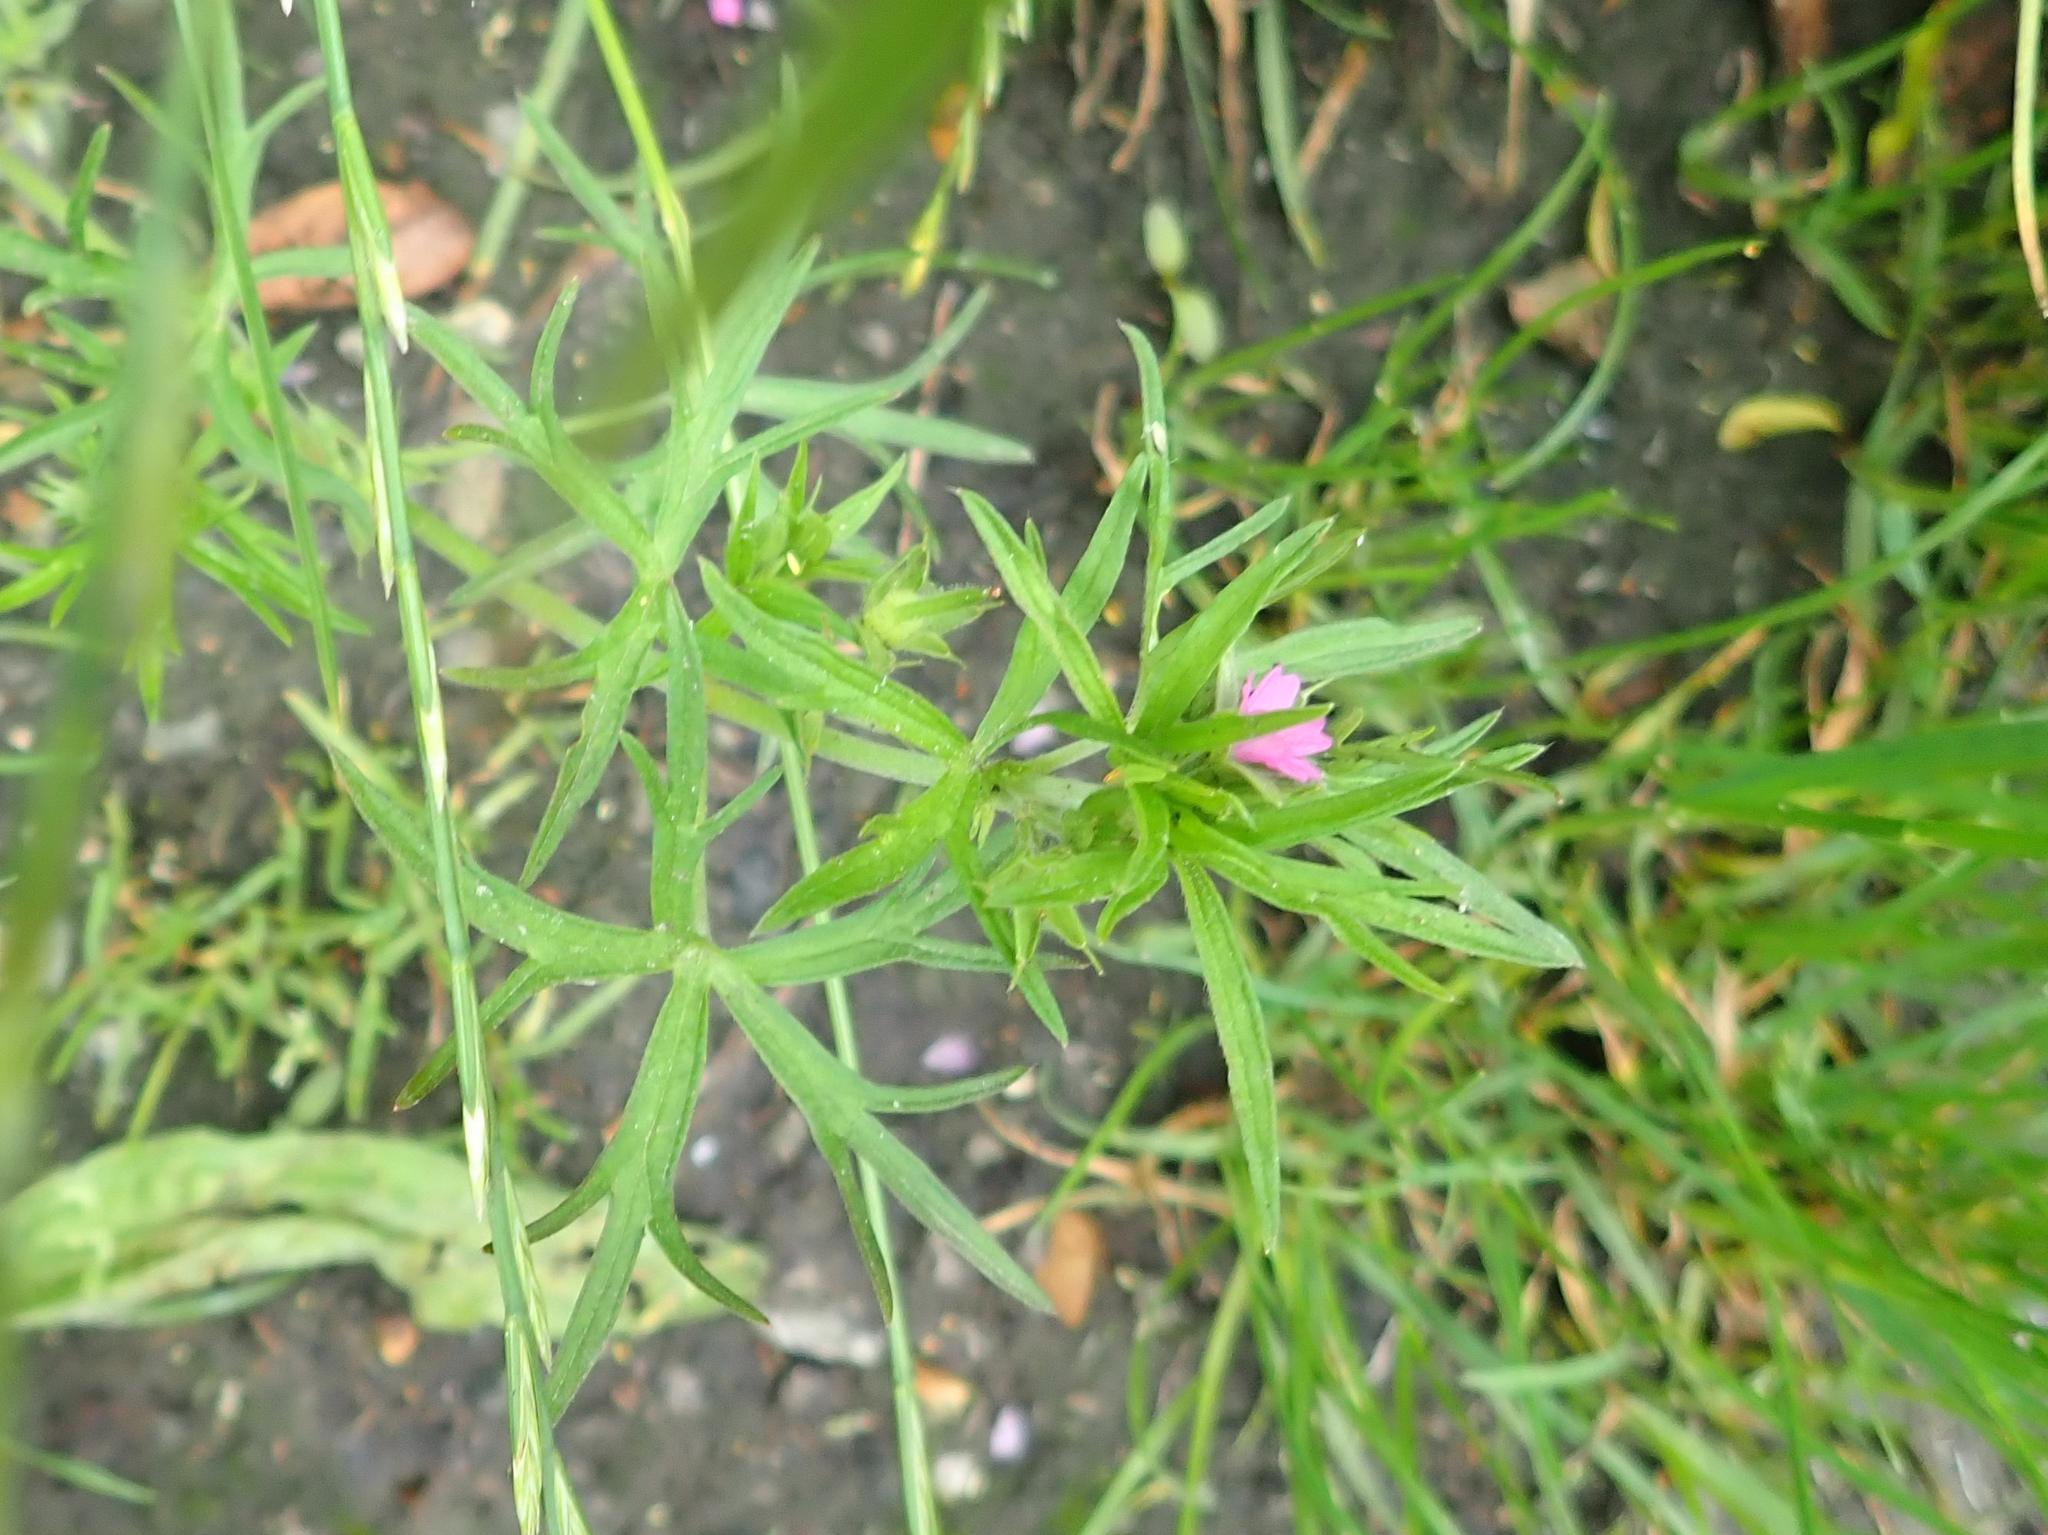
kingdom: Plantae
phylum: Tracheophyta
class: Magnoliopsida
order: Geraniales
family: Geraniaceae
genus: Geranium
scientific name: Geranium dissectum
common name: Cut-leaved crane's-bill
